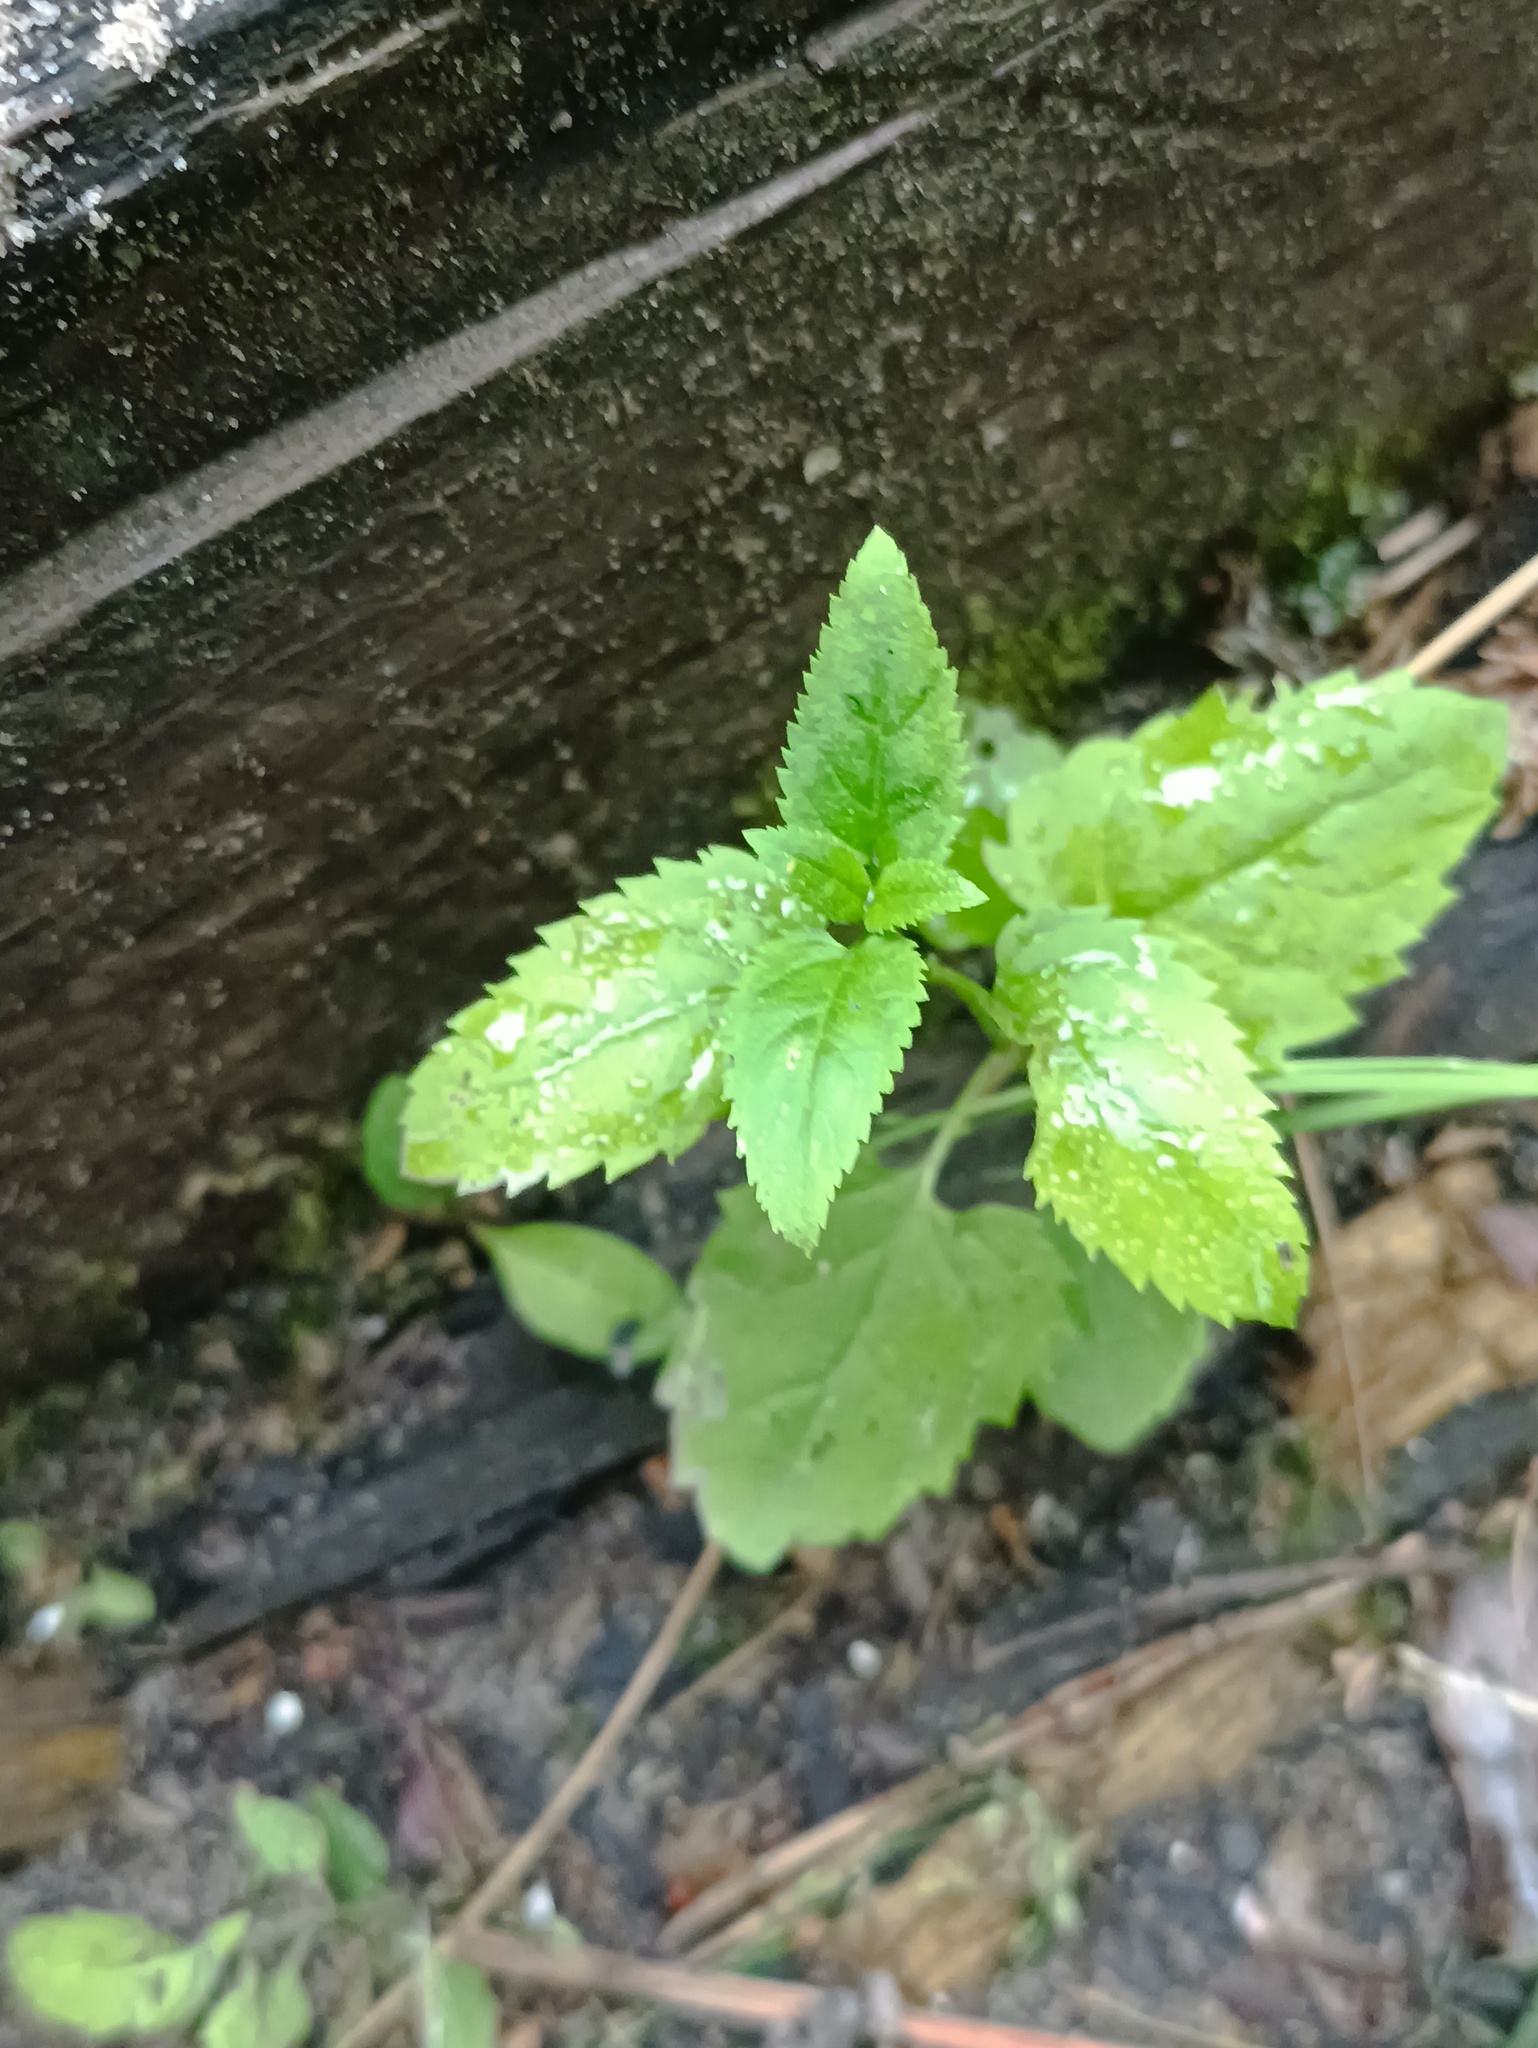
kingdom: Plantae
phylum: Tracheophyta
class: Magnoliopsida
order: Lamiales
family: Plantaginaceae
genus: Veronica
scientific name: Veronica longifolia
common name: Garden speedwell
